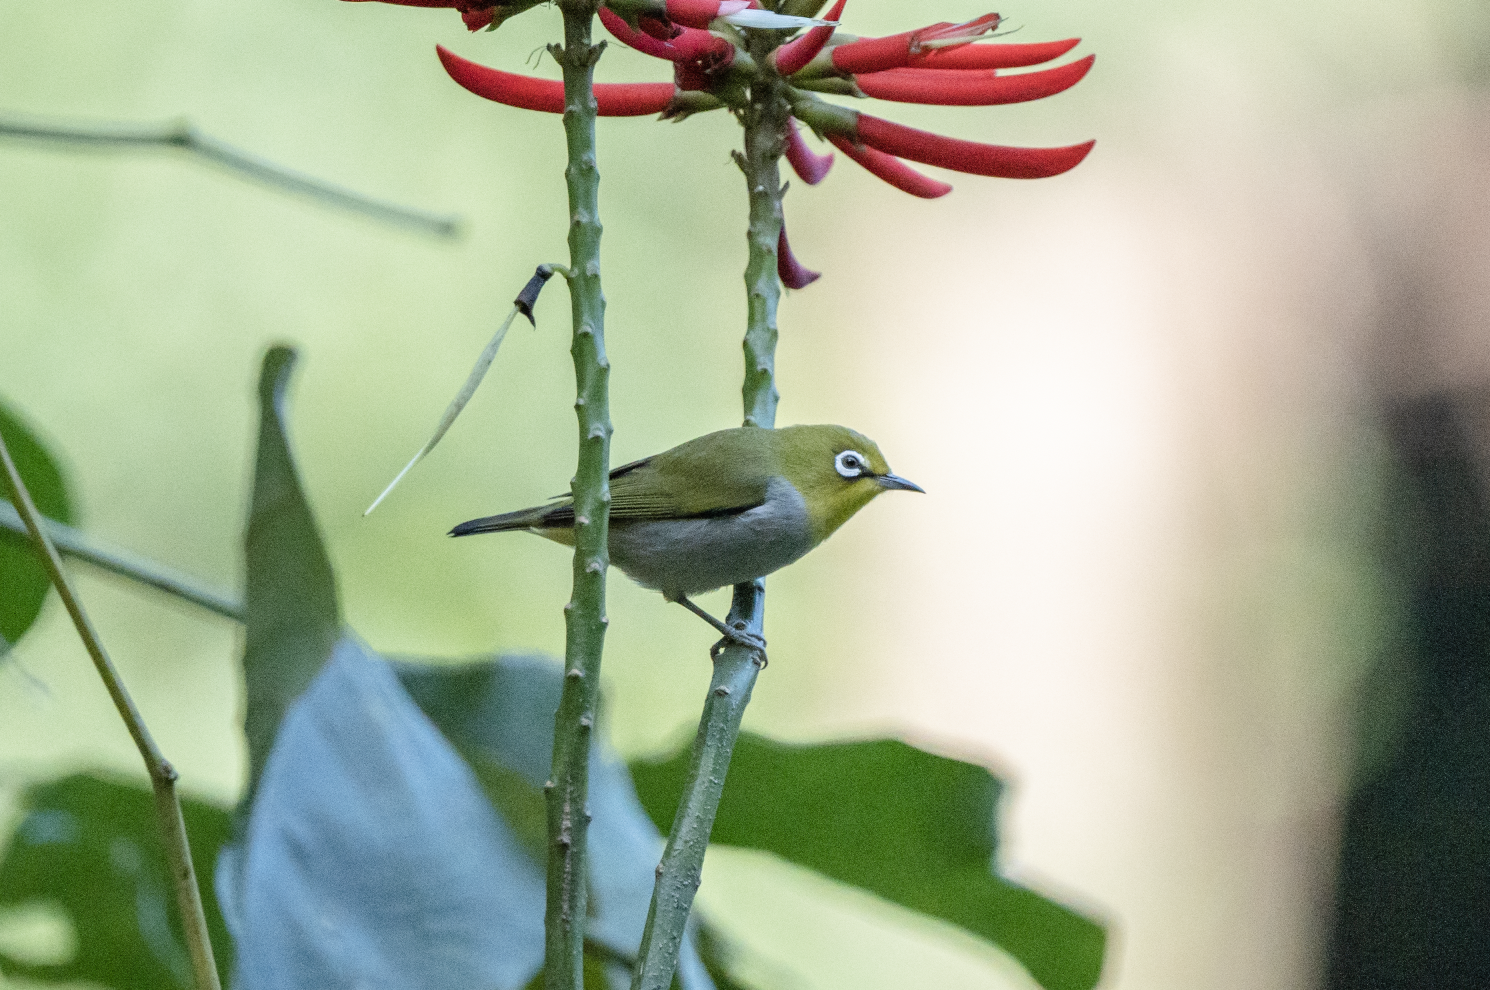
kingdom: Animalia
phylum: Chordata
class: Aves
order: Passeriformes
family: Zosteropidae
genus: Zosterops
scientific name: Zosterops simplex
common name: Swinhoe's white-eye
